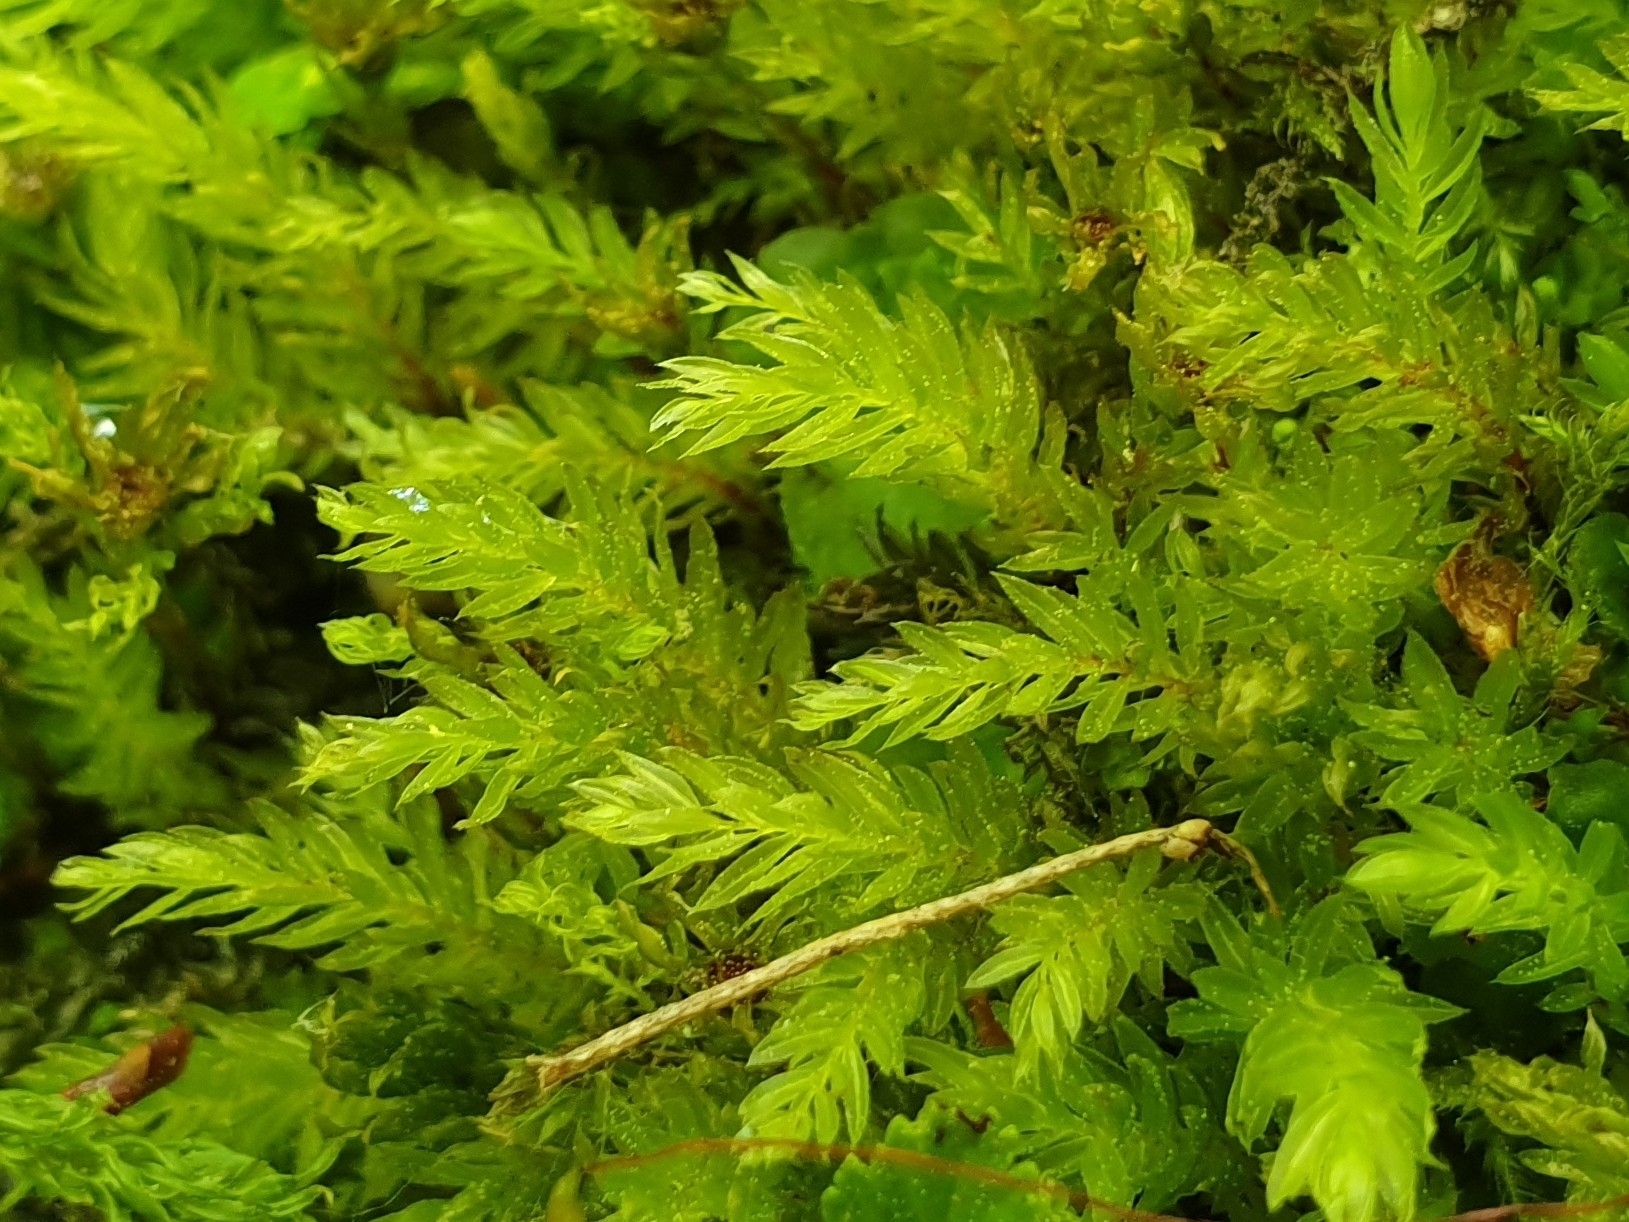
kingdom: Plantae
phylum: Bryophyta
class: Bryopsida
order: Bryales
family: Mniaceae
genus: Mnium
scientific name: Mnium hornum
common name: Swan's-neck leafy moss
